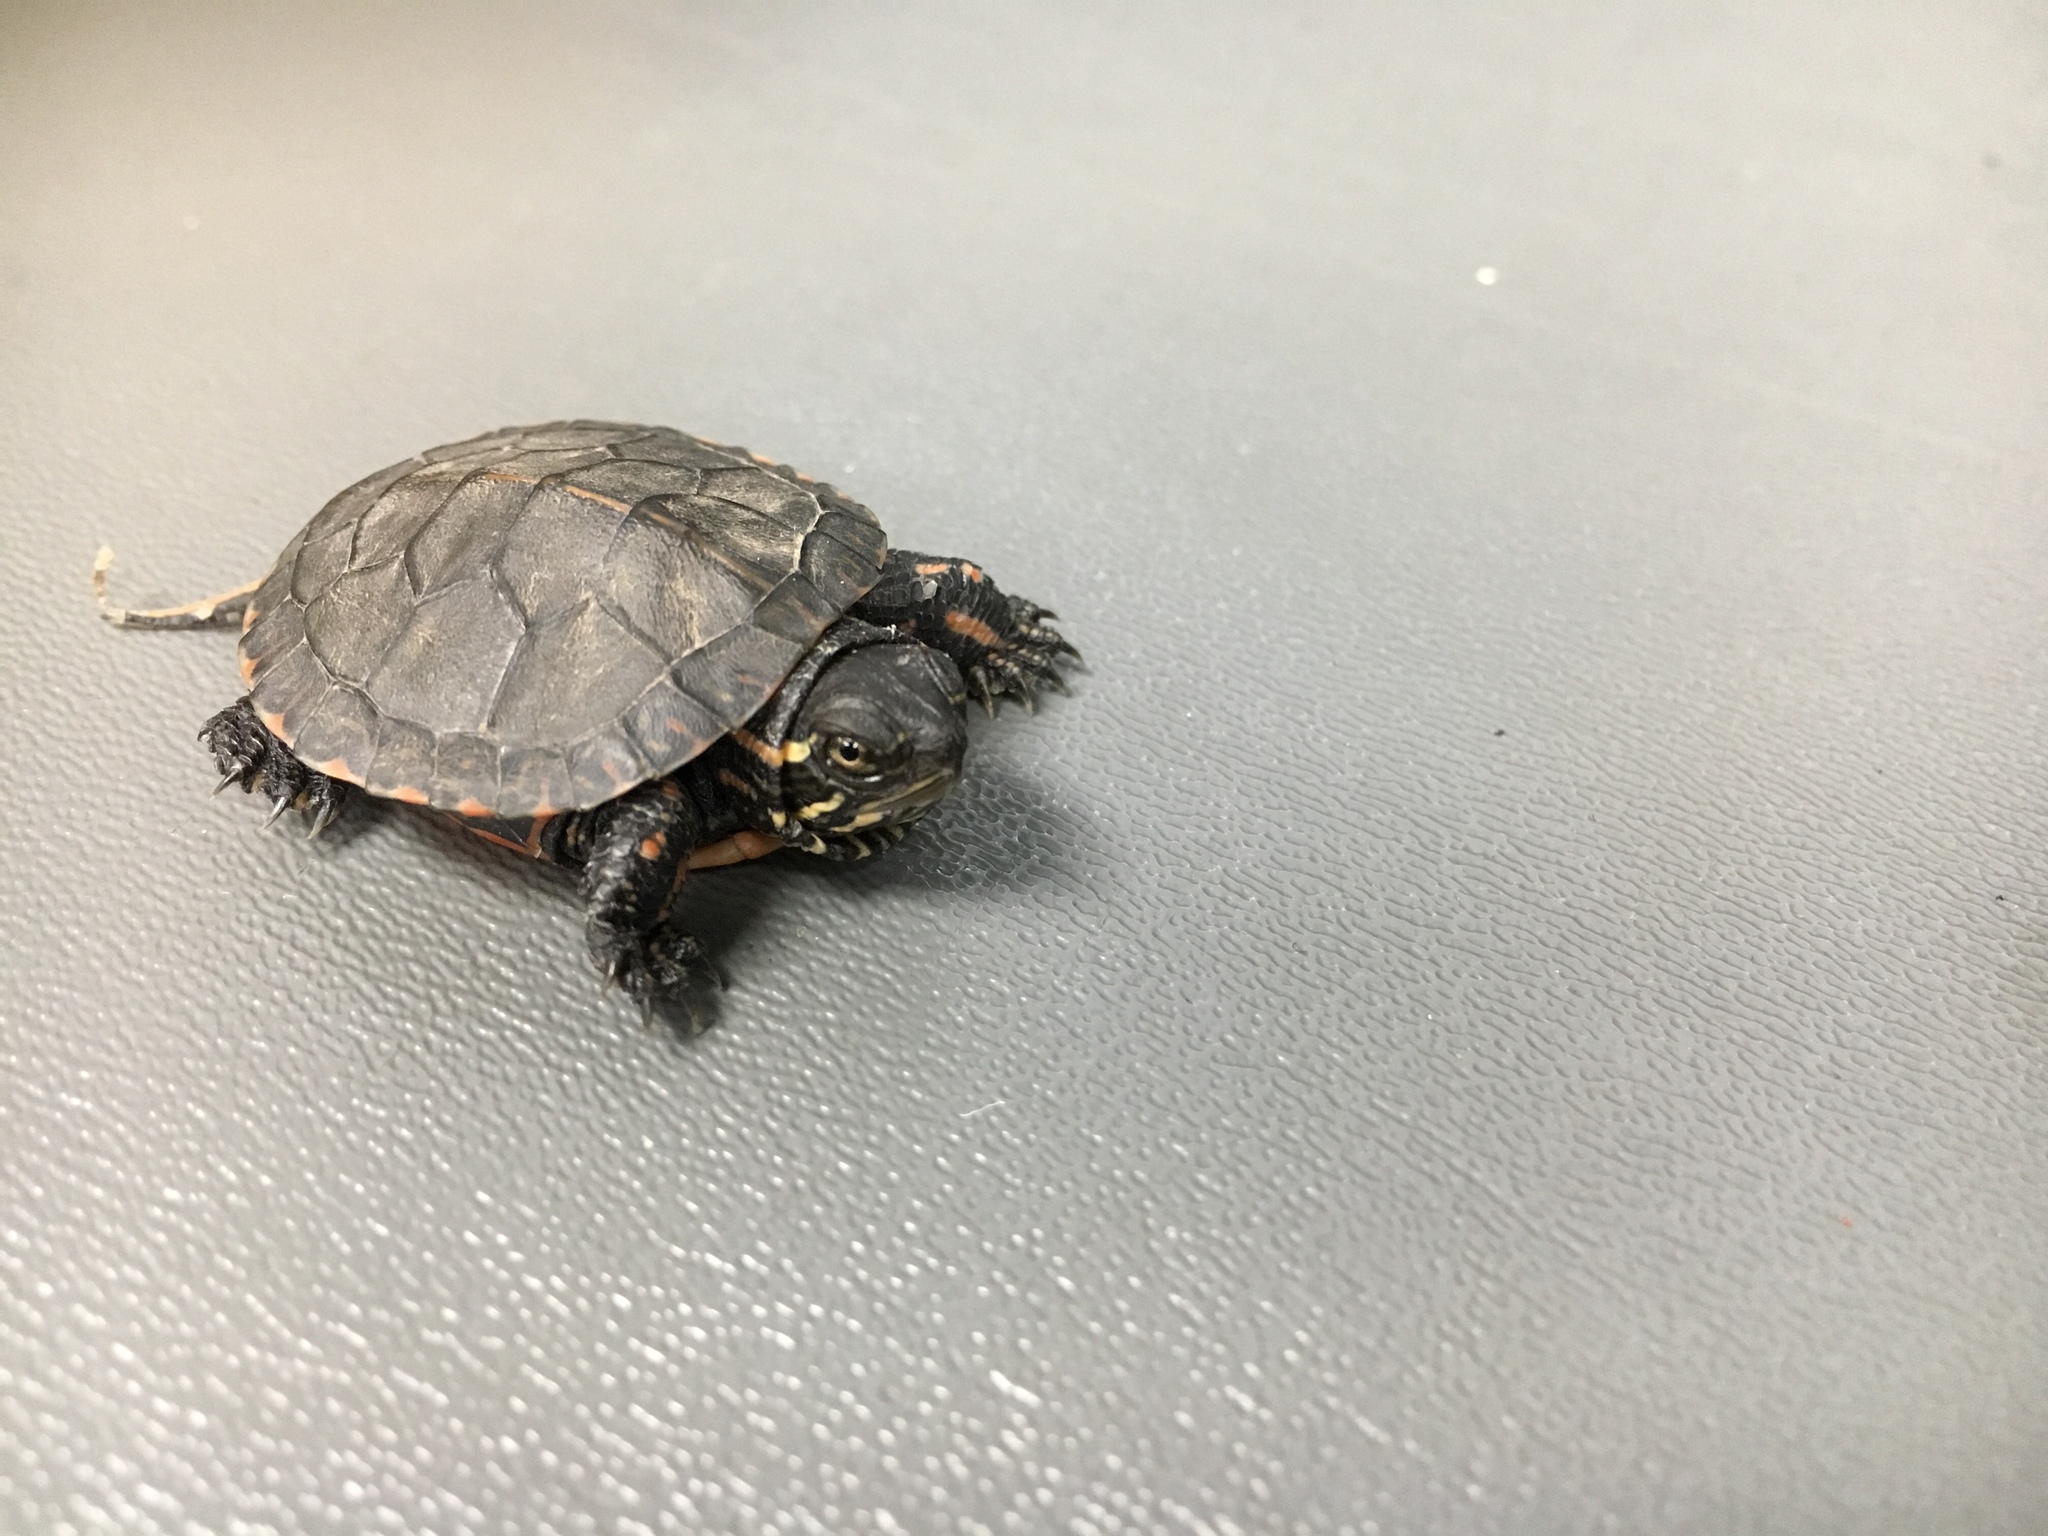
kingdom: Animalia
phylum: Chordata
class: Testudines
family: Emydidae
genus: Chrysemys
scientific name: Chrysemys picta
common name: Painted turtle
